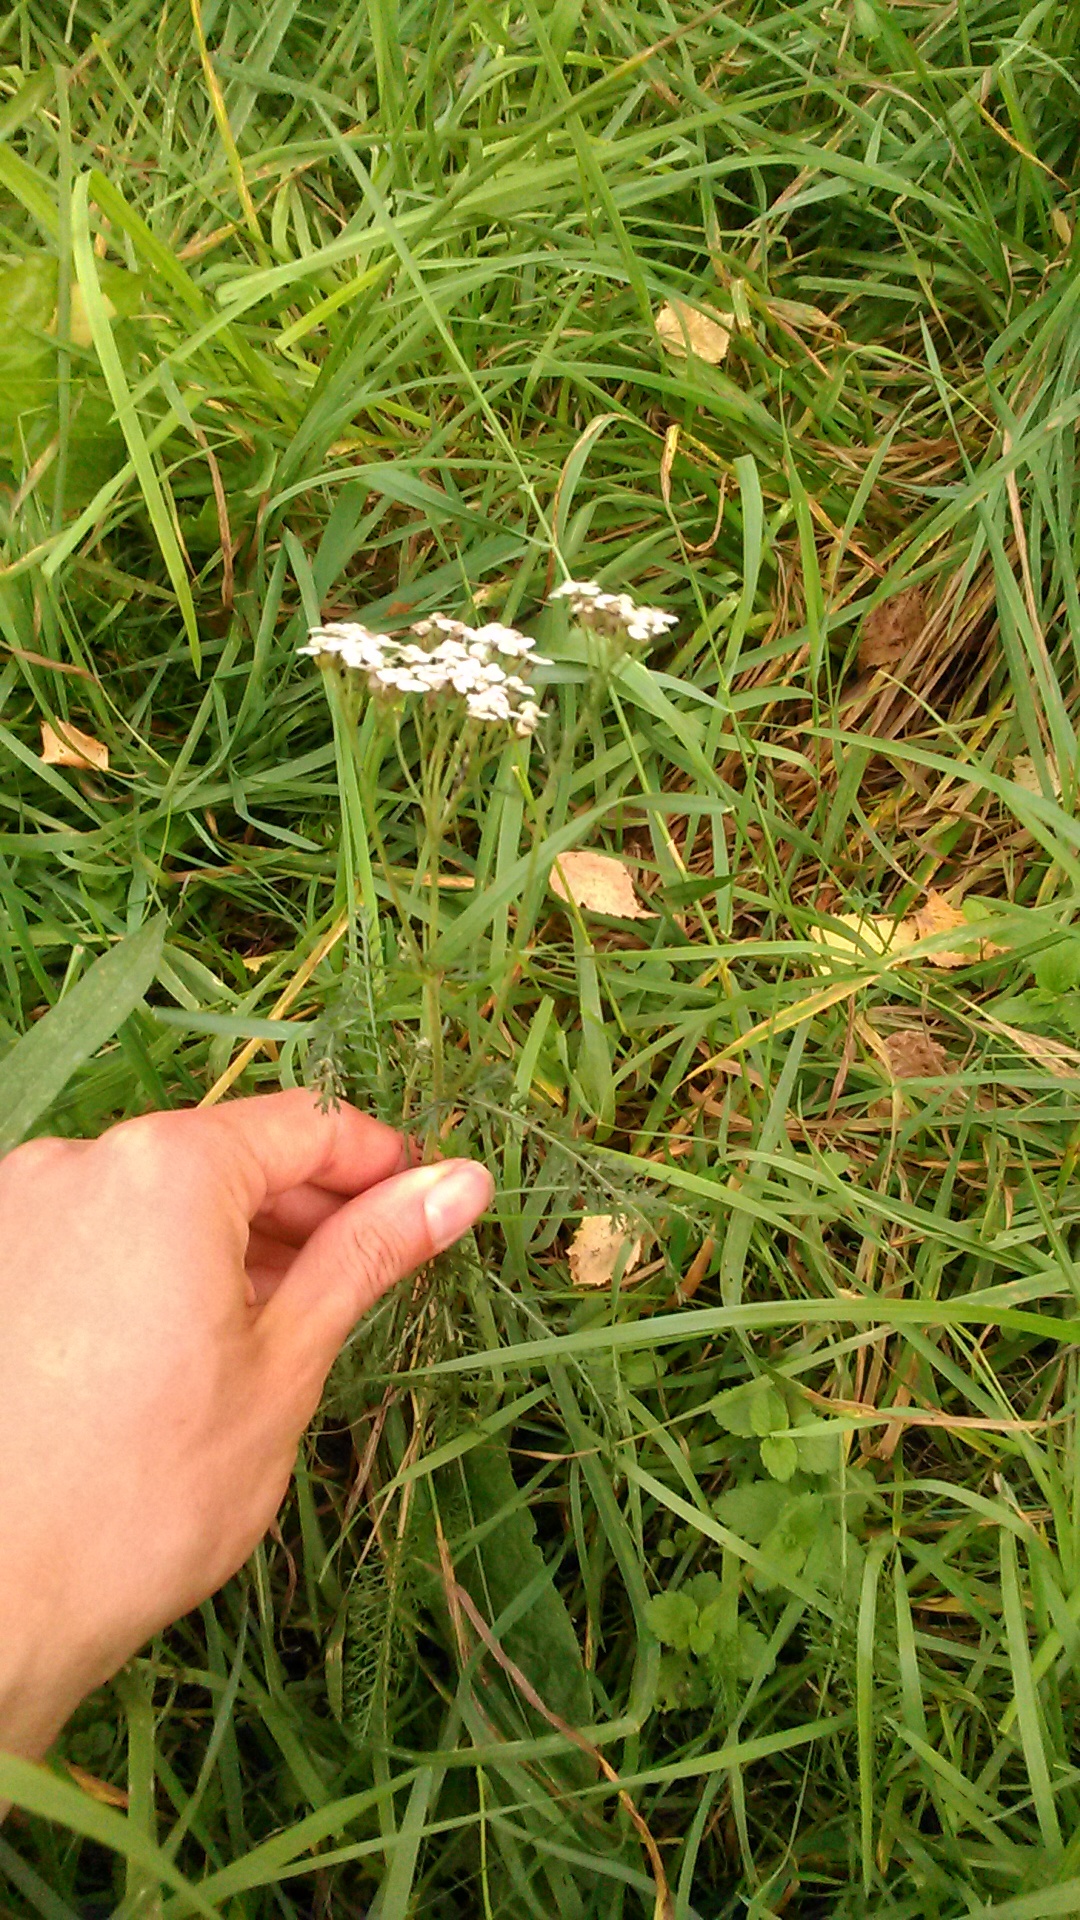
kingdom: Plantae
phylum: Tracheophyta
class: Magnoliopsida
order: Asterales
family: Asteraceae
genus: Achillea
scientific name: Achillea millefolium
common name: Yarrow
